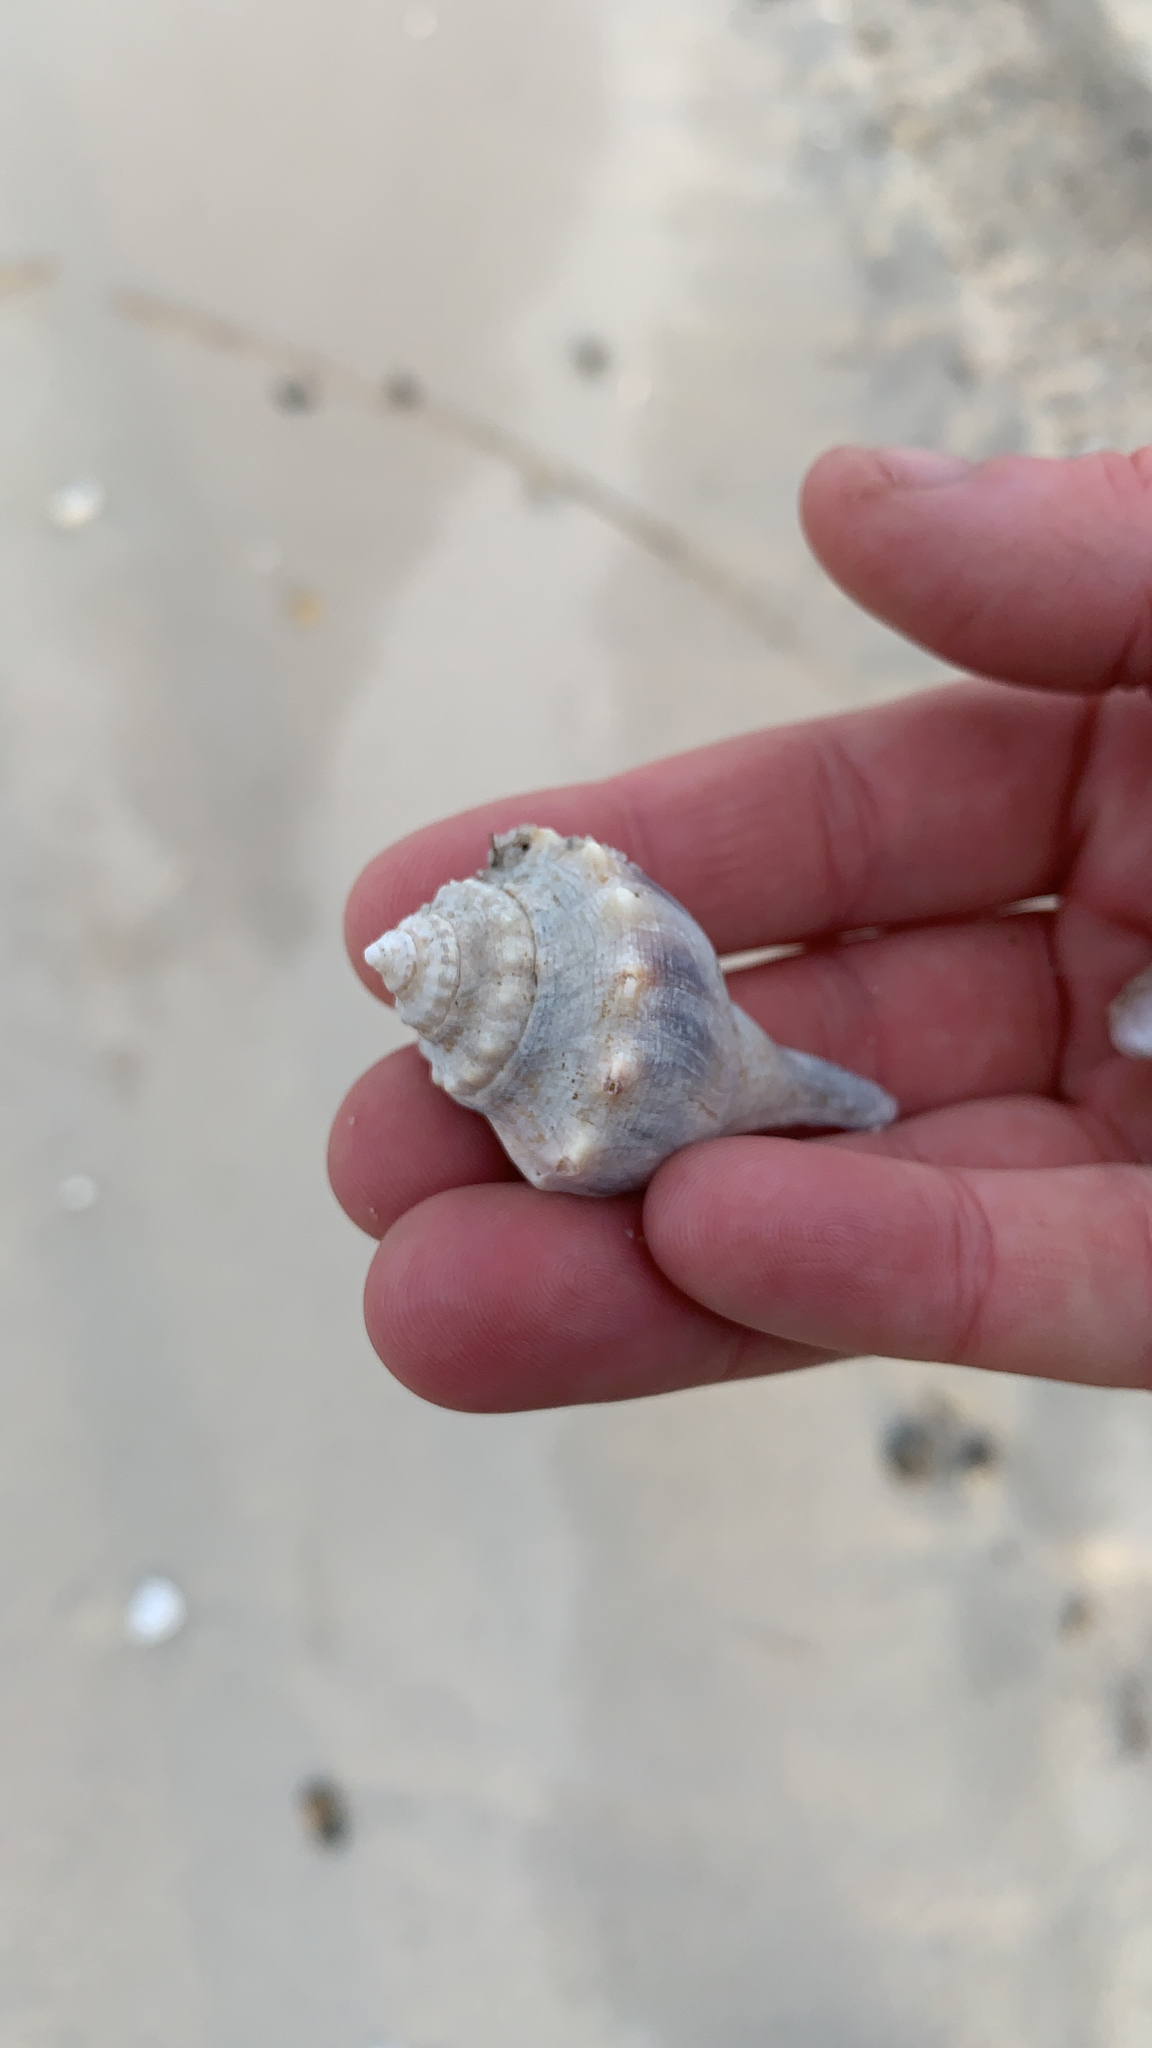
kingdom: Animalia
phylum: Mollusca
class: Gastropoda
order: Neogastropoda
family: Busyconidae
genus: Busycon
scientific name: Busycon carica
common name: Knobbed whelk
